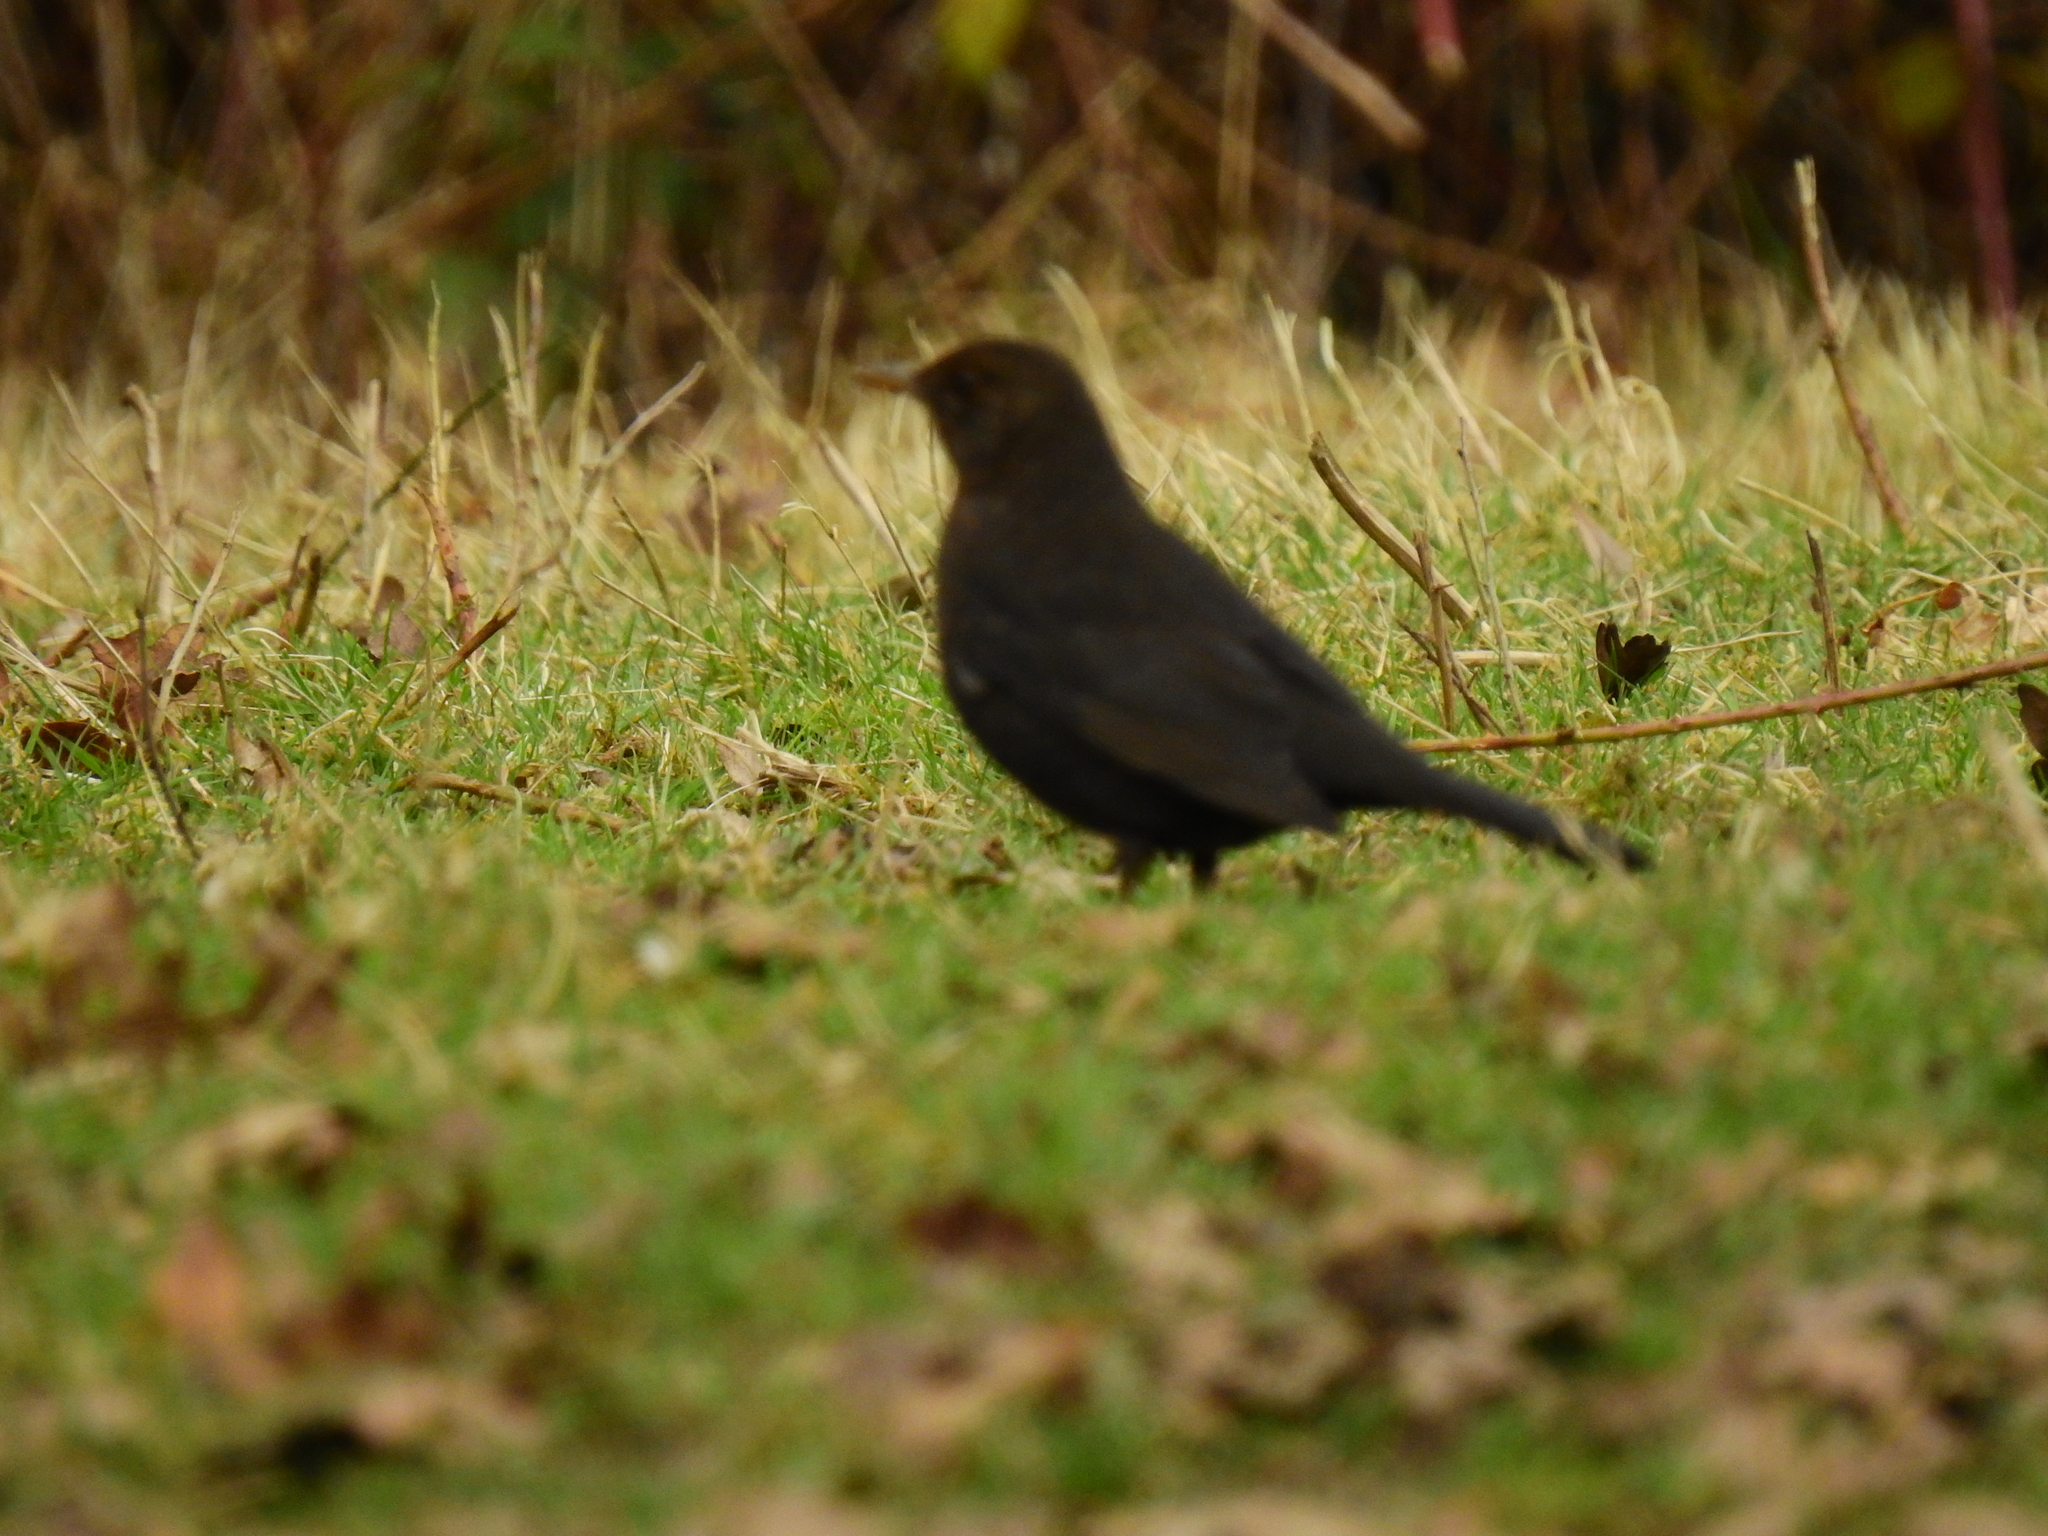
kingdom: Animalia
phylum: Chordata
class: Aves
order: Passeriformes
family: Turdidae
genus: Turdus
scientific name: Turdus merula
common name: Common blackbird
